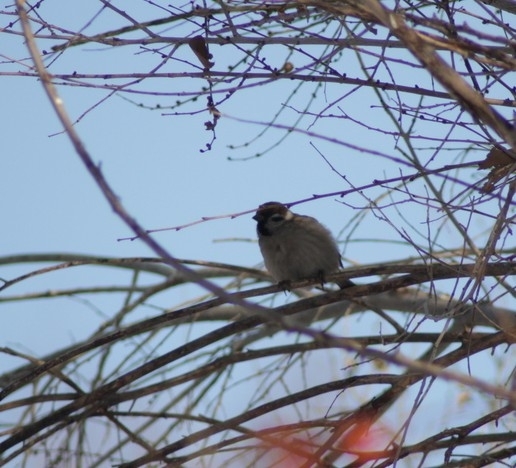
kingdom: Animalia
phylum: Chordata
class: Aves
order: Passeriformes
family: Passeridae
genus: Passer
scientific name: Passer montanus
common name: Eurasian tree sparrow
